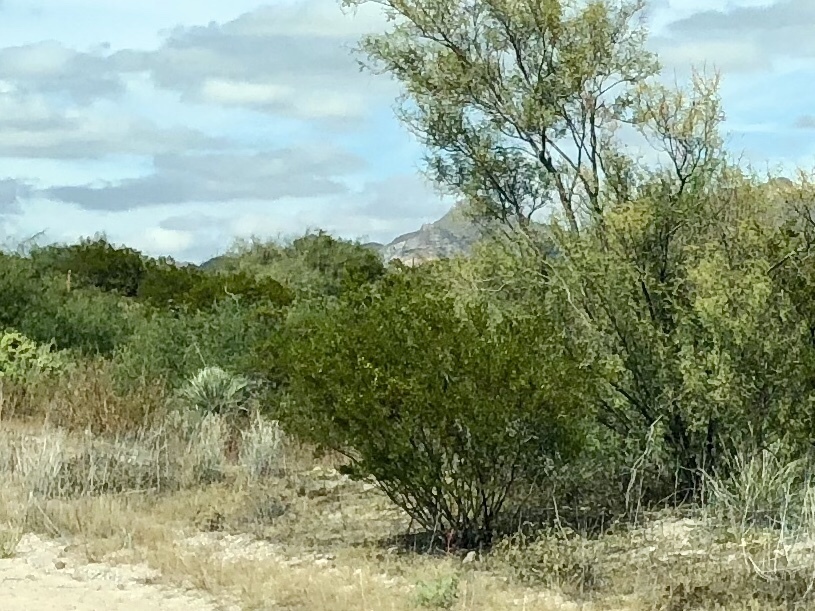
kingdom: Plantae
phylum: Tracheophyta
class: Magnoliopsida
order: Zygophyllales
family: Zygophyllaceae
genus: Larrea
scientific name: Larrea tridentata
